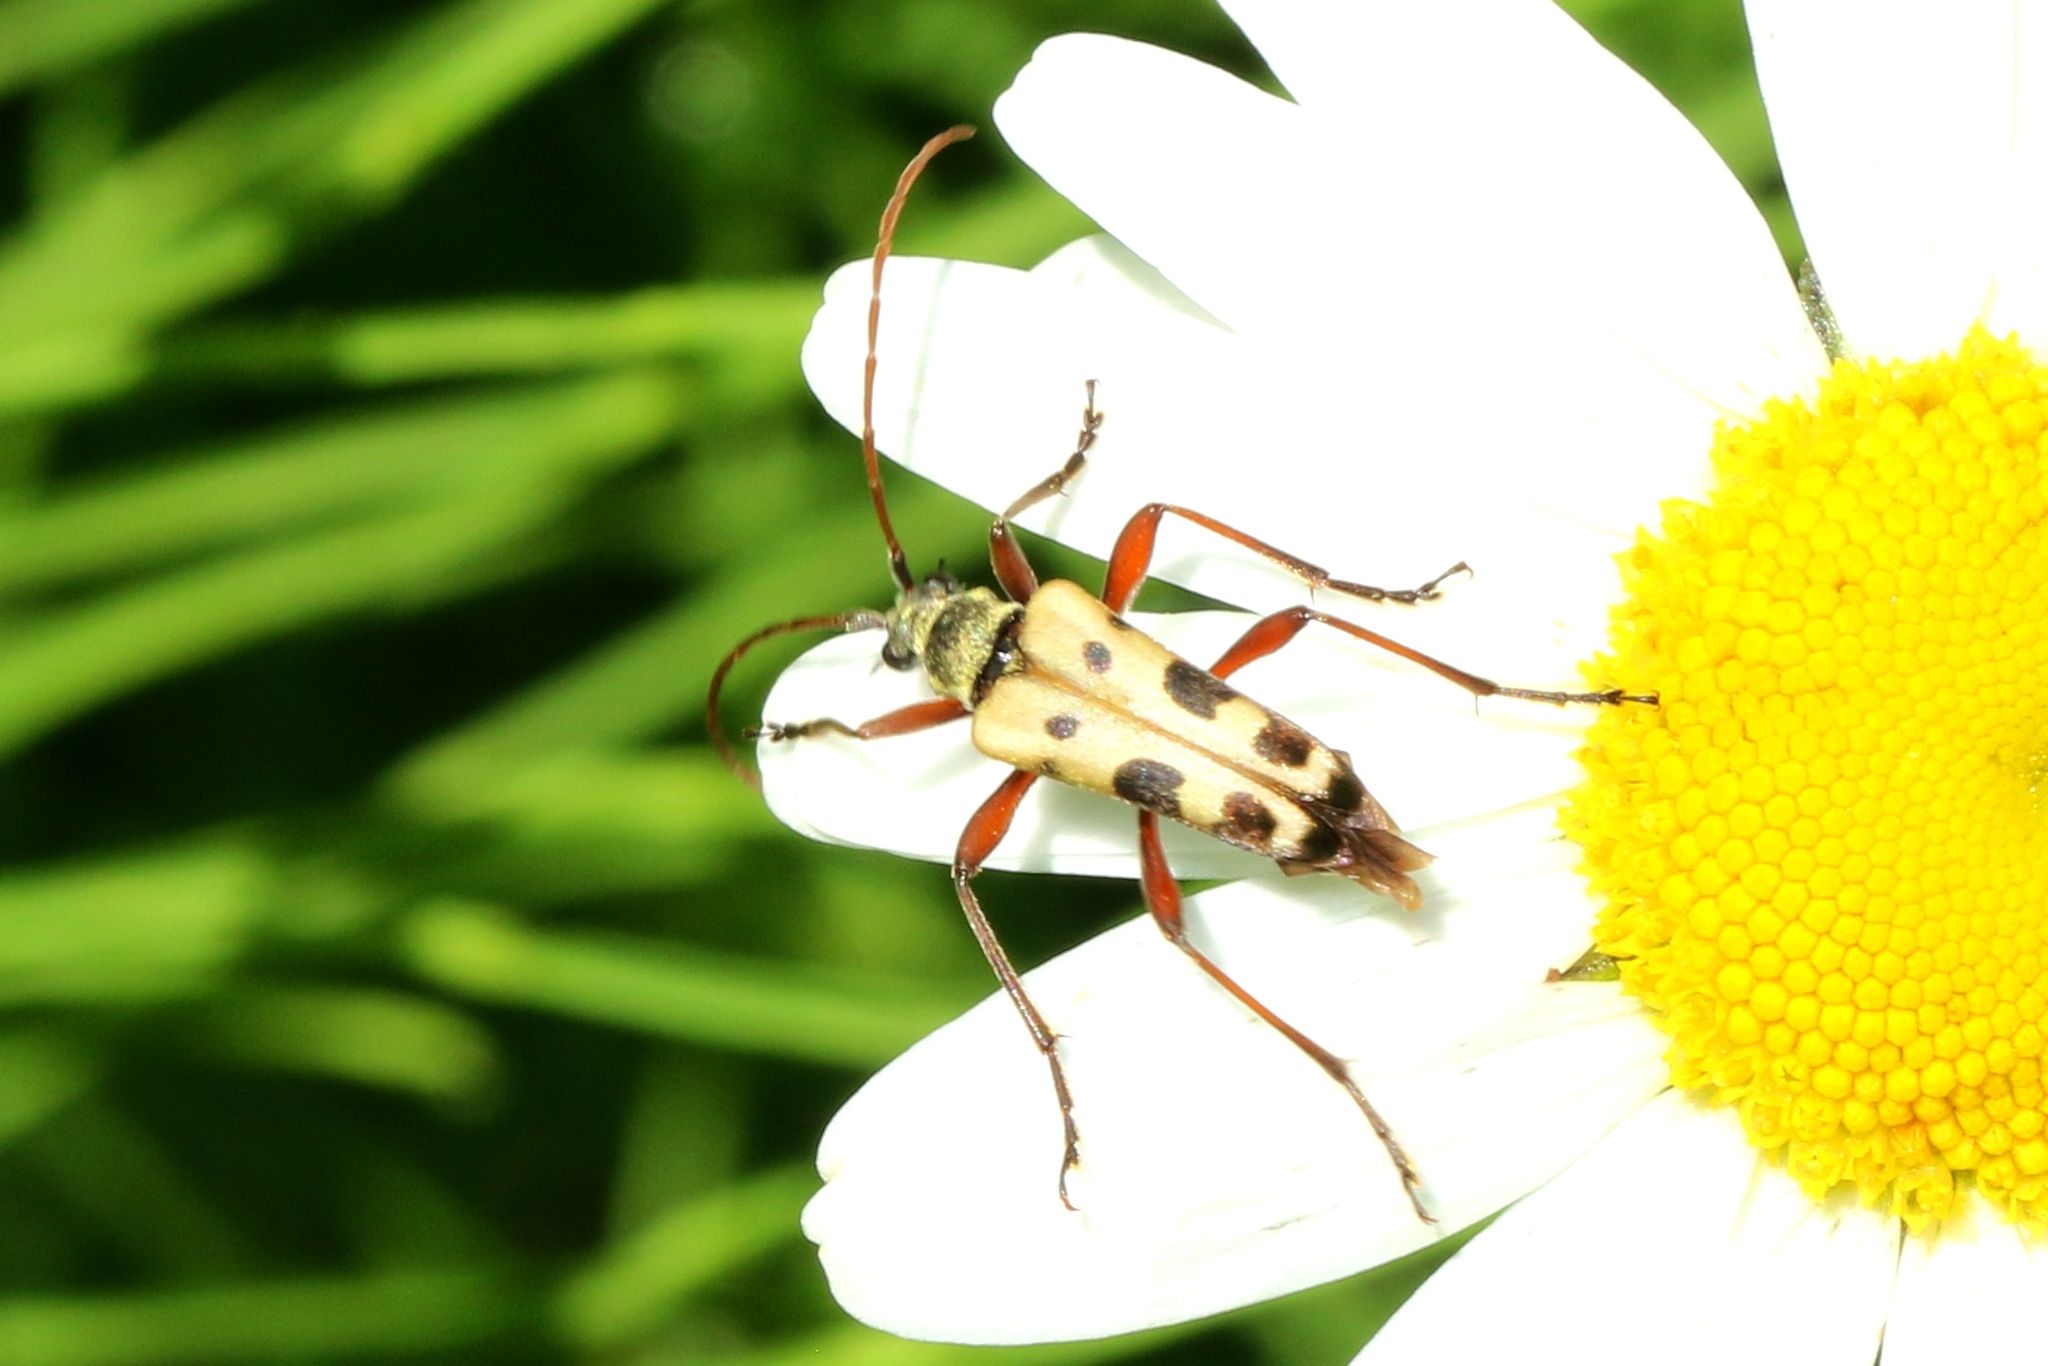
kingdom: Animalia
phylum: Arthropoda
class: Insecta
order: Coleoptera
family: Cerambycidae
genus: Evodinus
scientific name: Evodinus monticola
